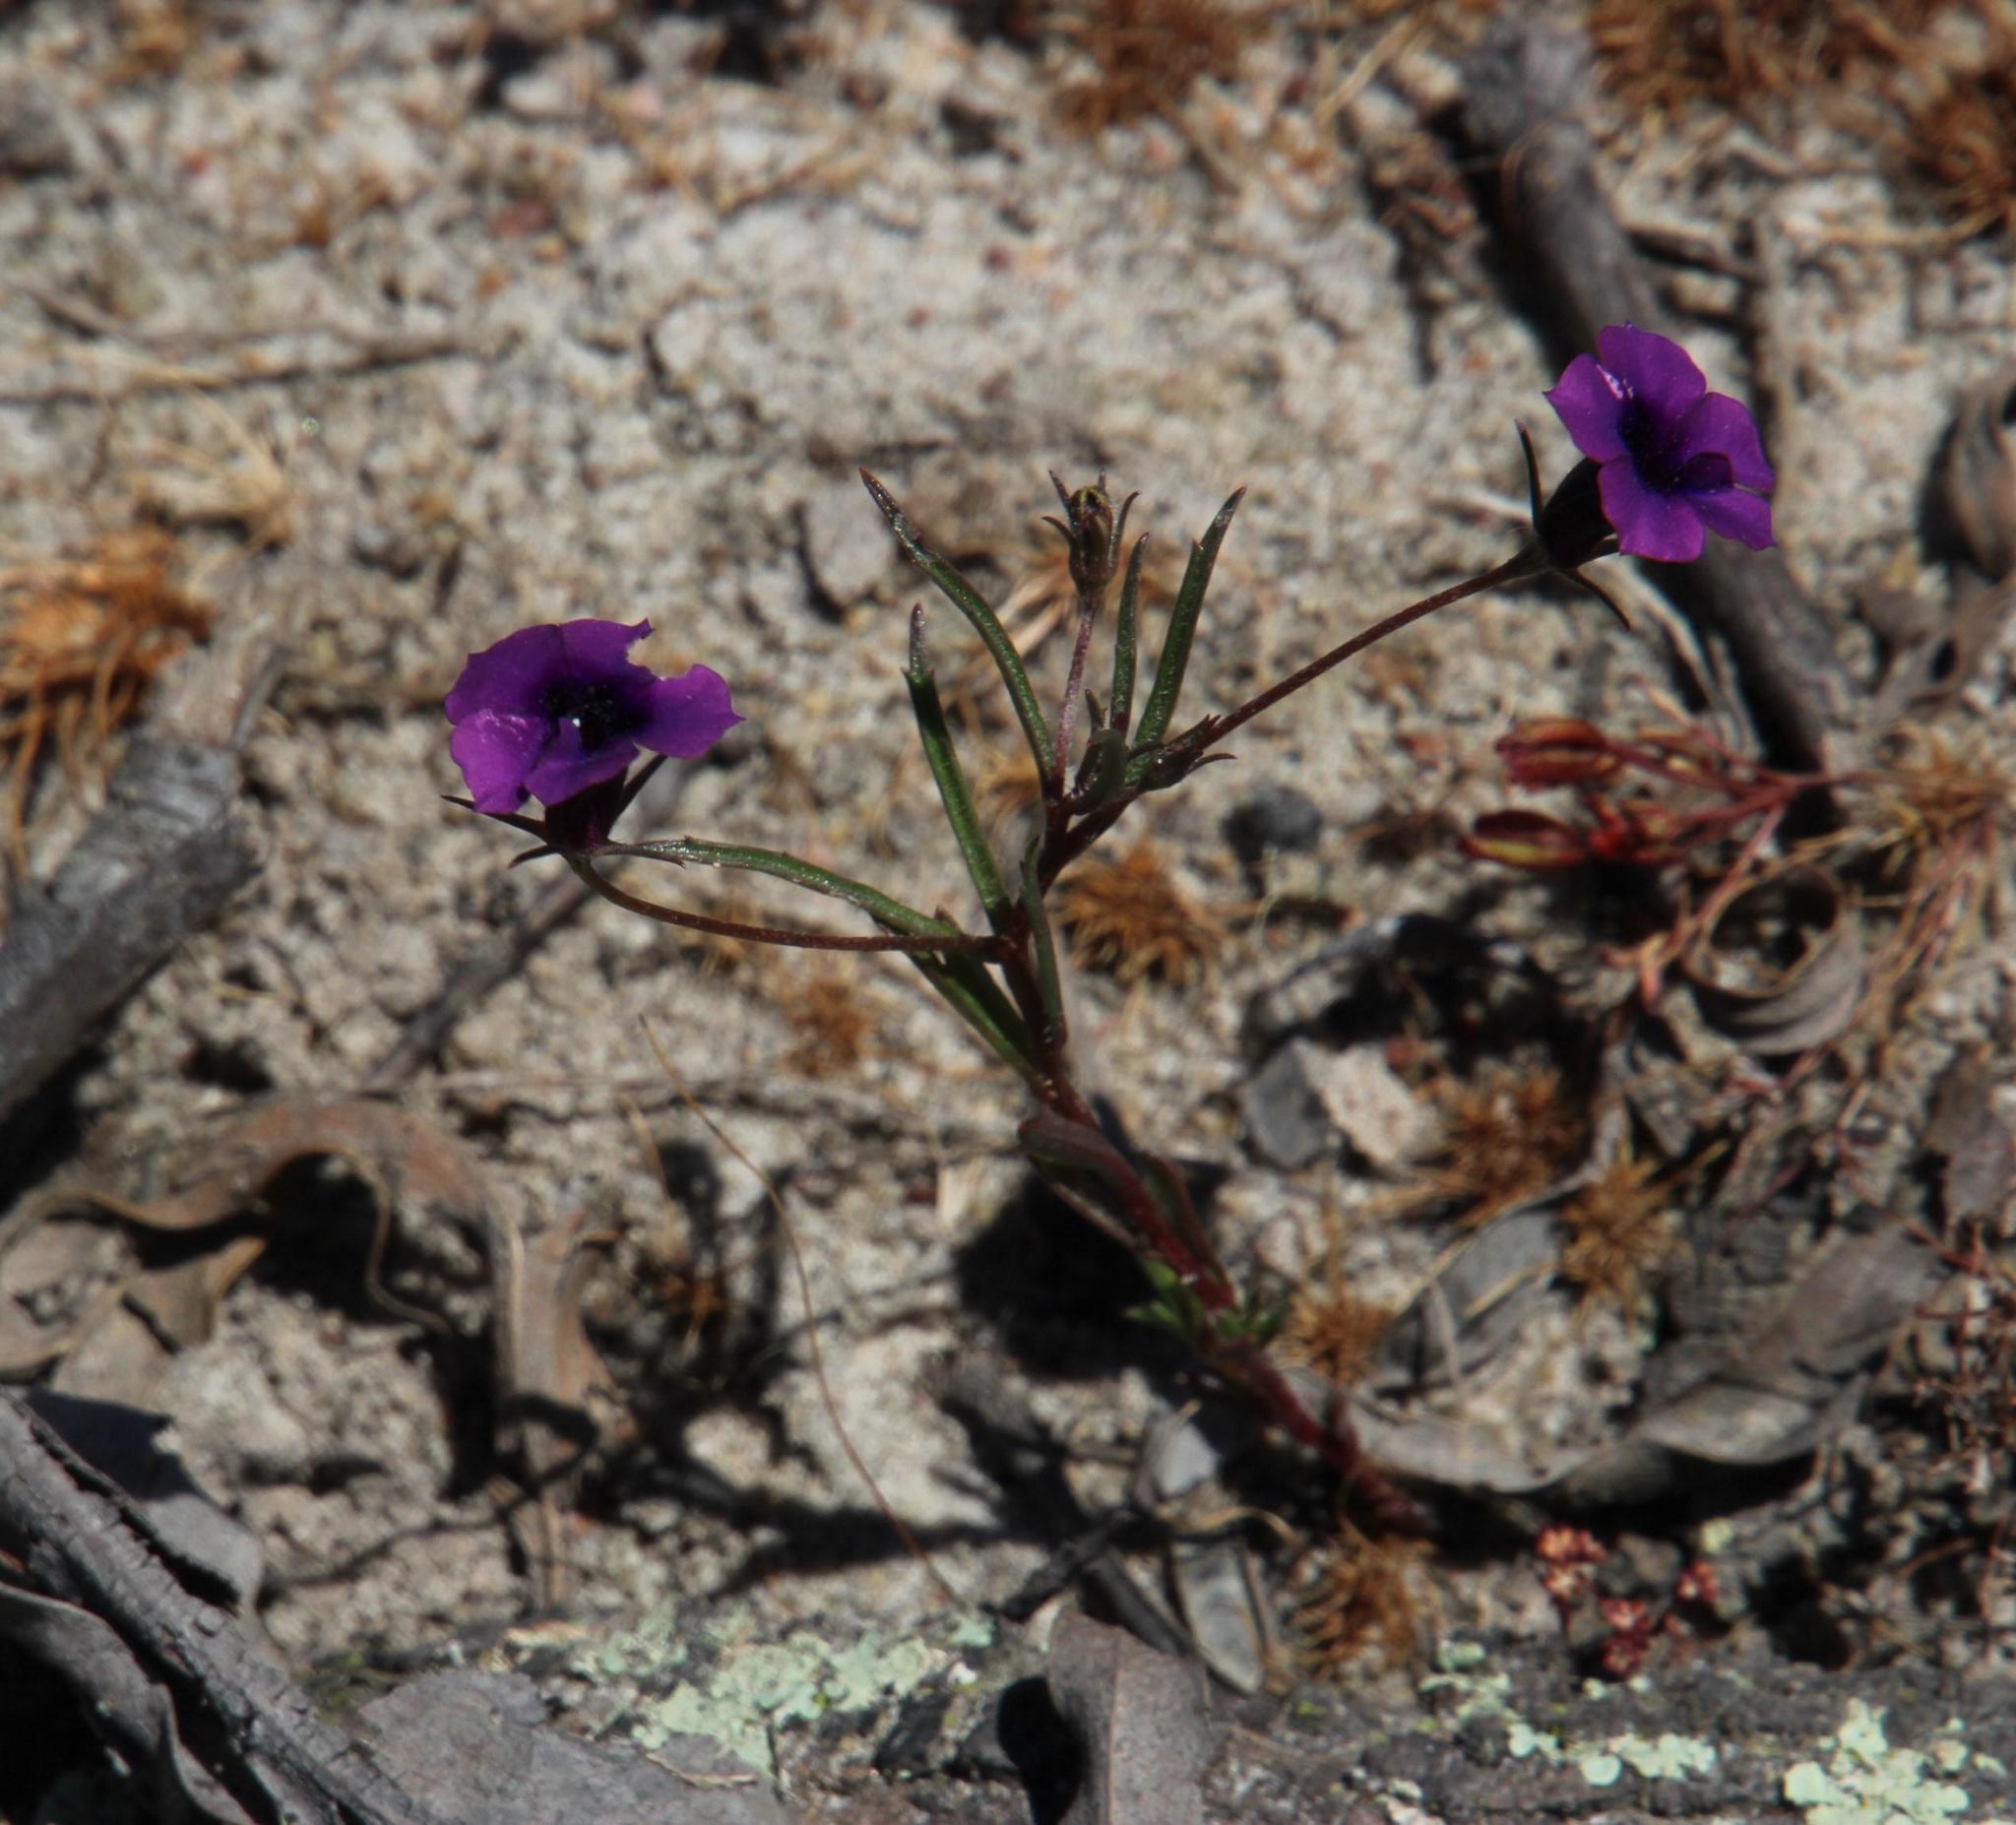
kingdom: Plantae
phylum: Tracheophyta
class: Magnoliopsida
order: Asterales
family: Campanulaceae
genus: Monopsis
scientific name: Monopsis debilis
